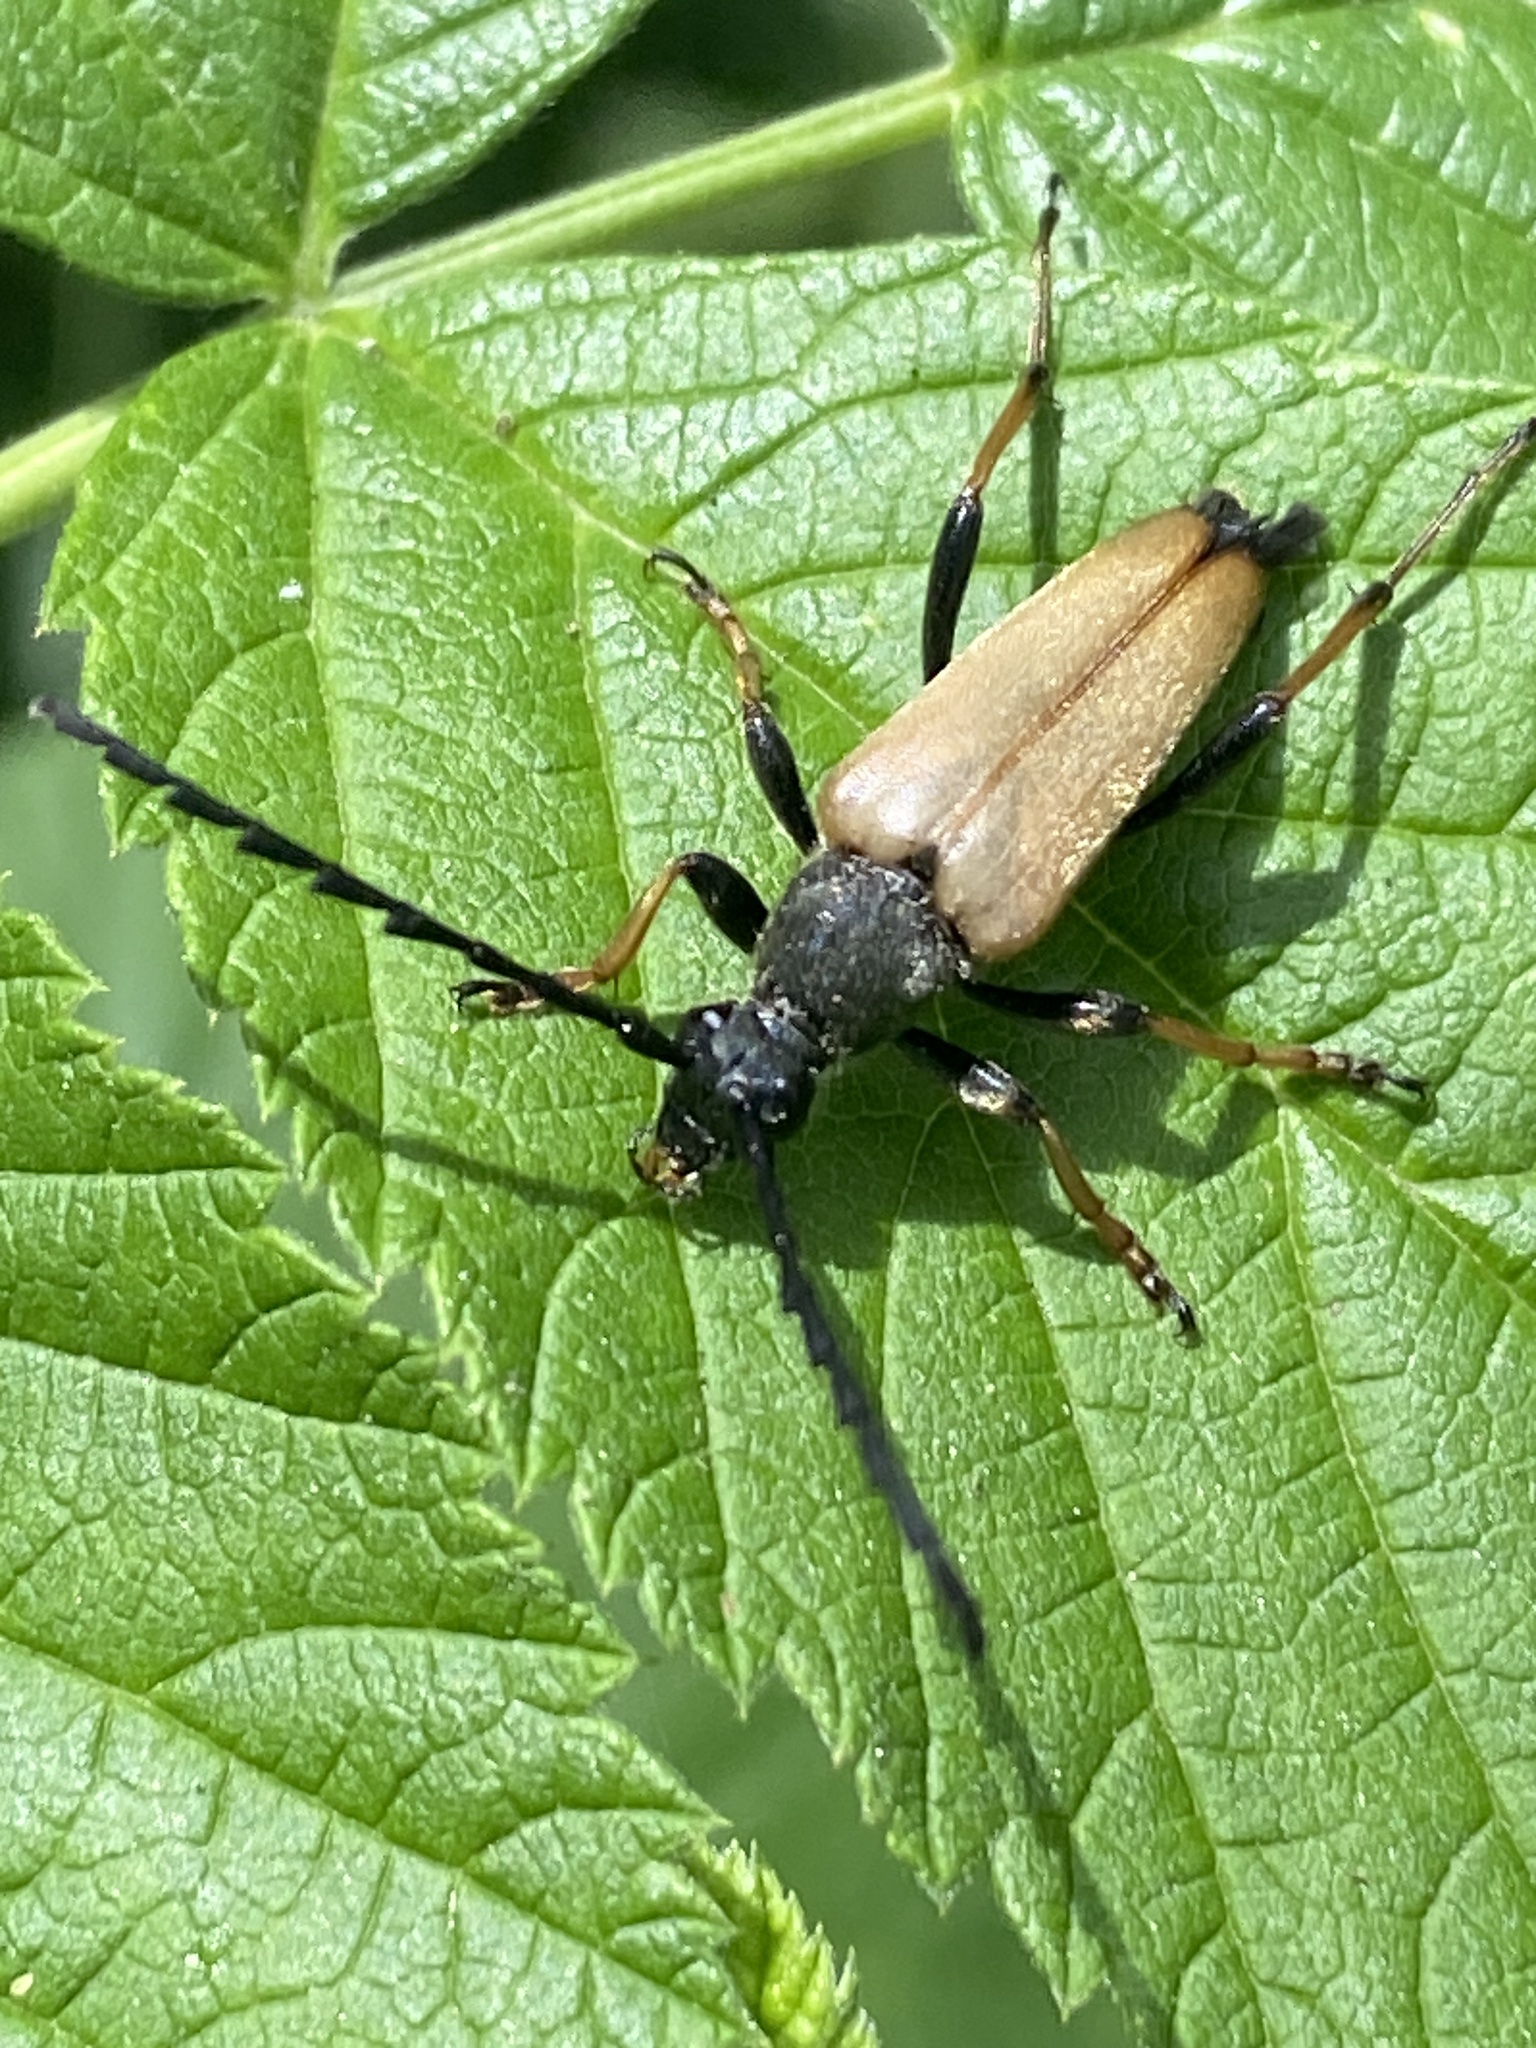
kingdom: Animalia
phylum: Arthropoda
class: Insecta
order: Coleoptera
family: Cerambycidae
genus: Stictoleptura
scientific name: Stictoleptura rubra
